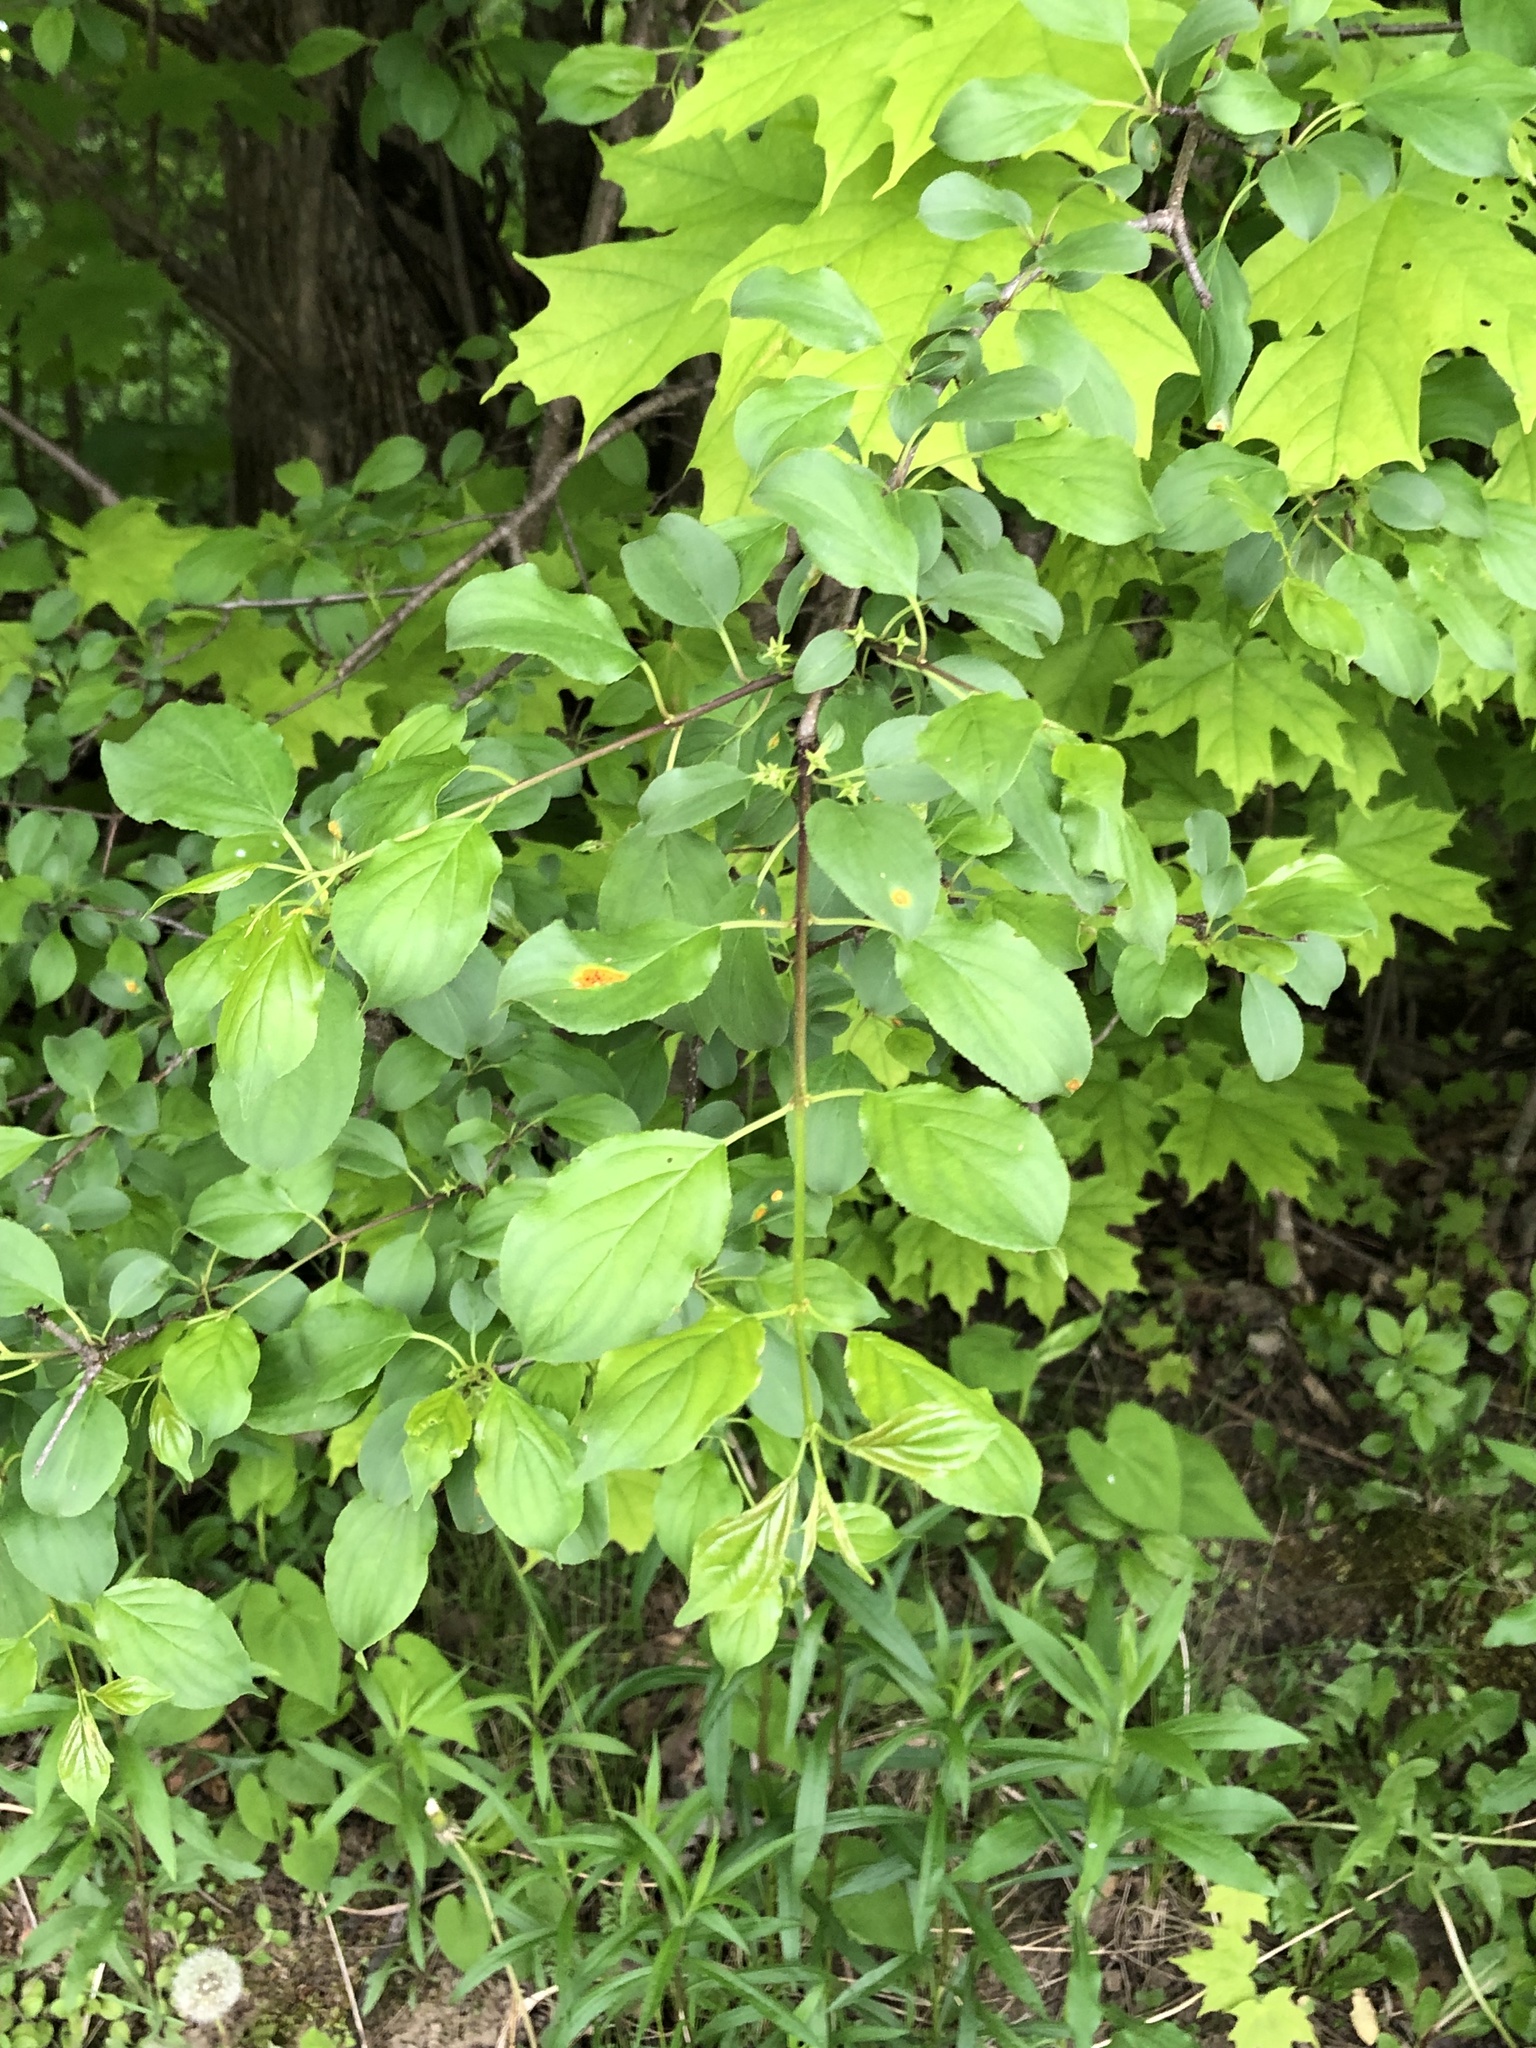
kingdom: Plantae
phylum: Tracheophyta
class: Magnoliopsida
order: Rosales
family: Rhamnaceae
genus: Rhamnus
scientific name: Rhamnus cathartica
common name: Common buckthorn
